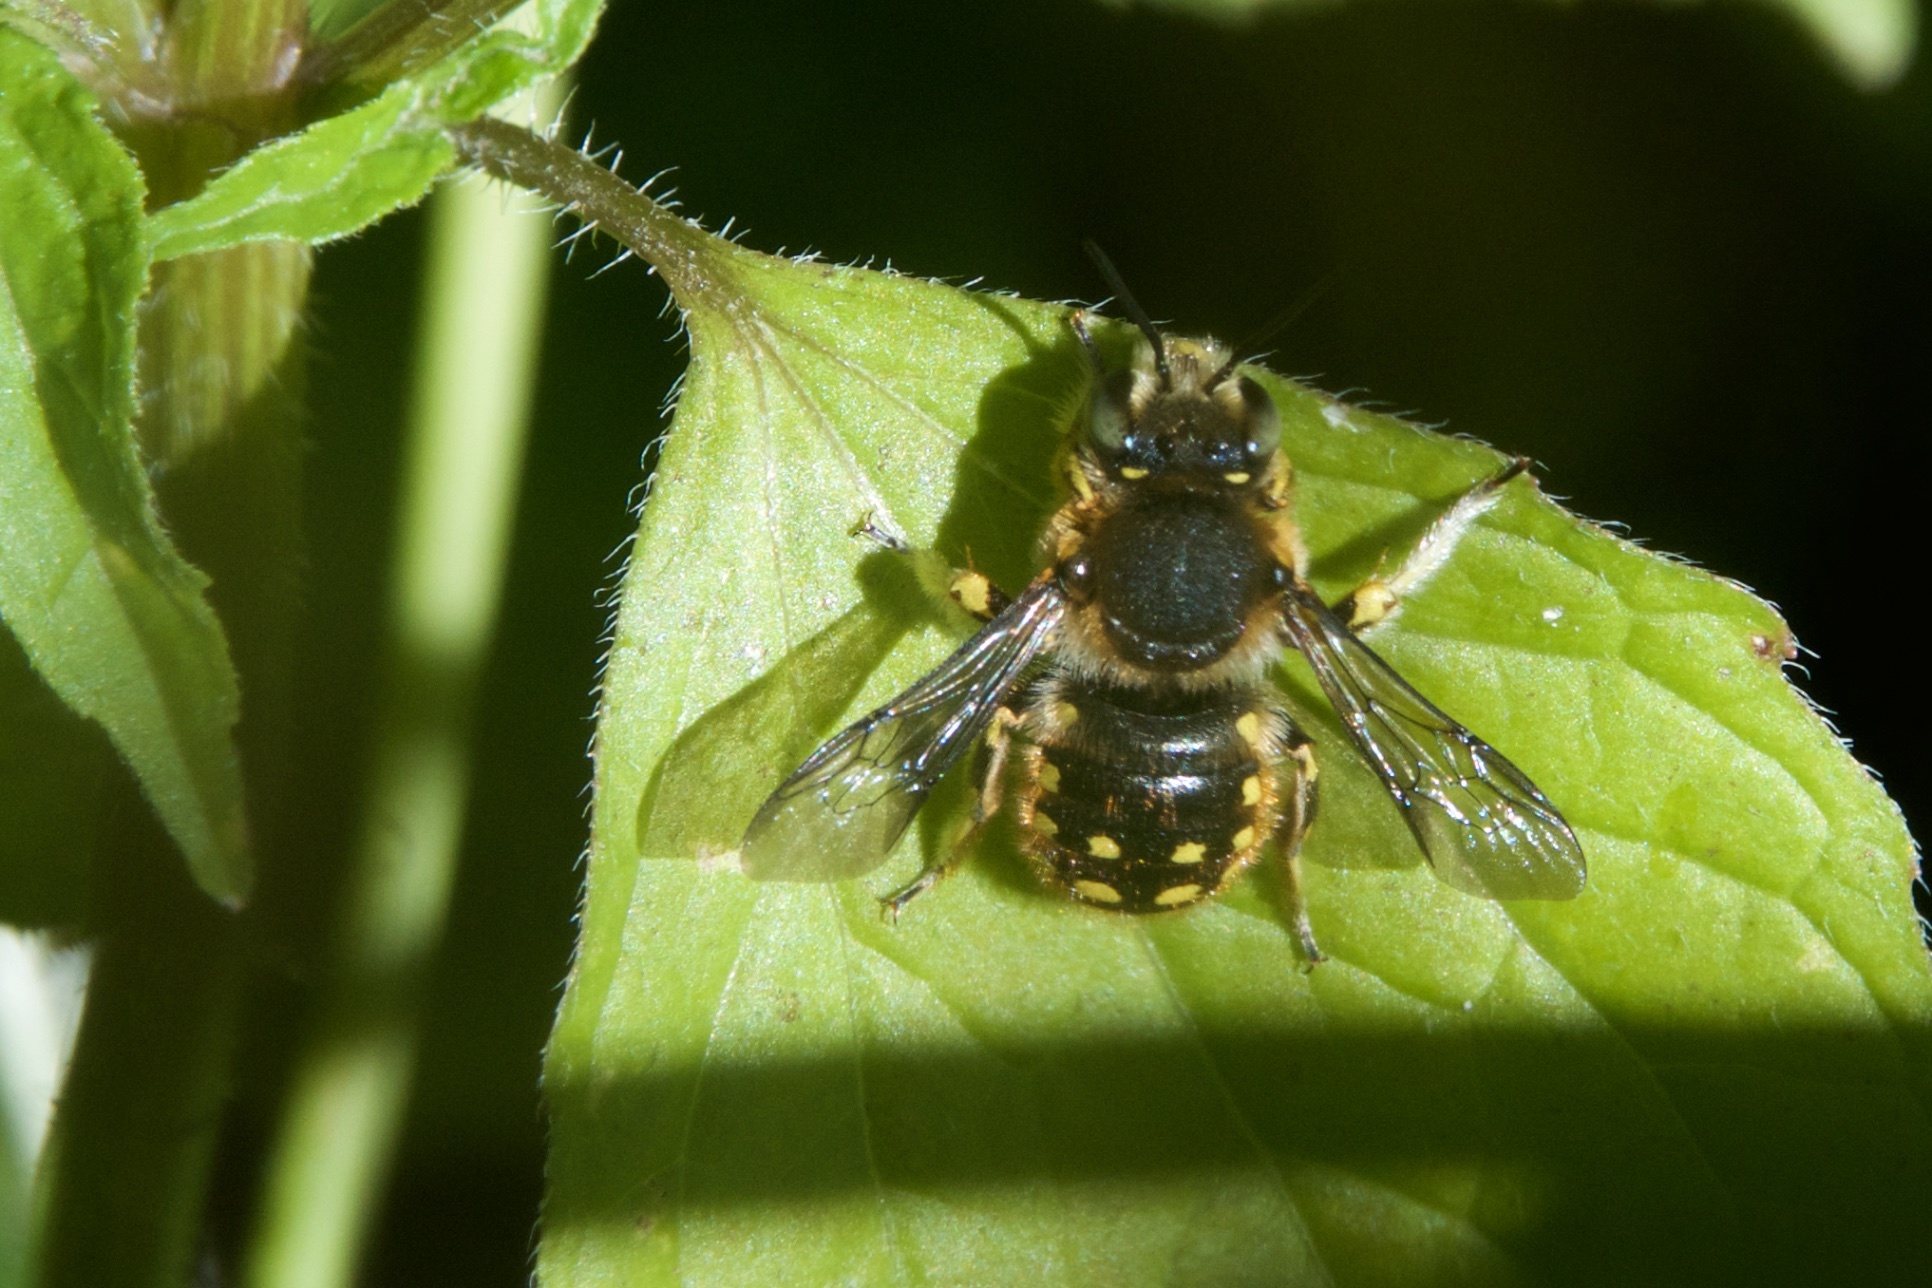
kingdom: Animalia
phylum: Arthropoda
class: Insecta
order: Hymenoptera
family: Megachilidae
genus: Anthidium
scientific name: Anthidium manicatum
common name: Wool carder bee
